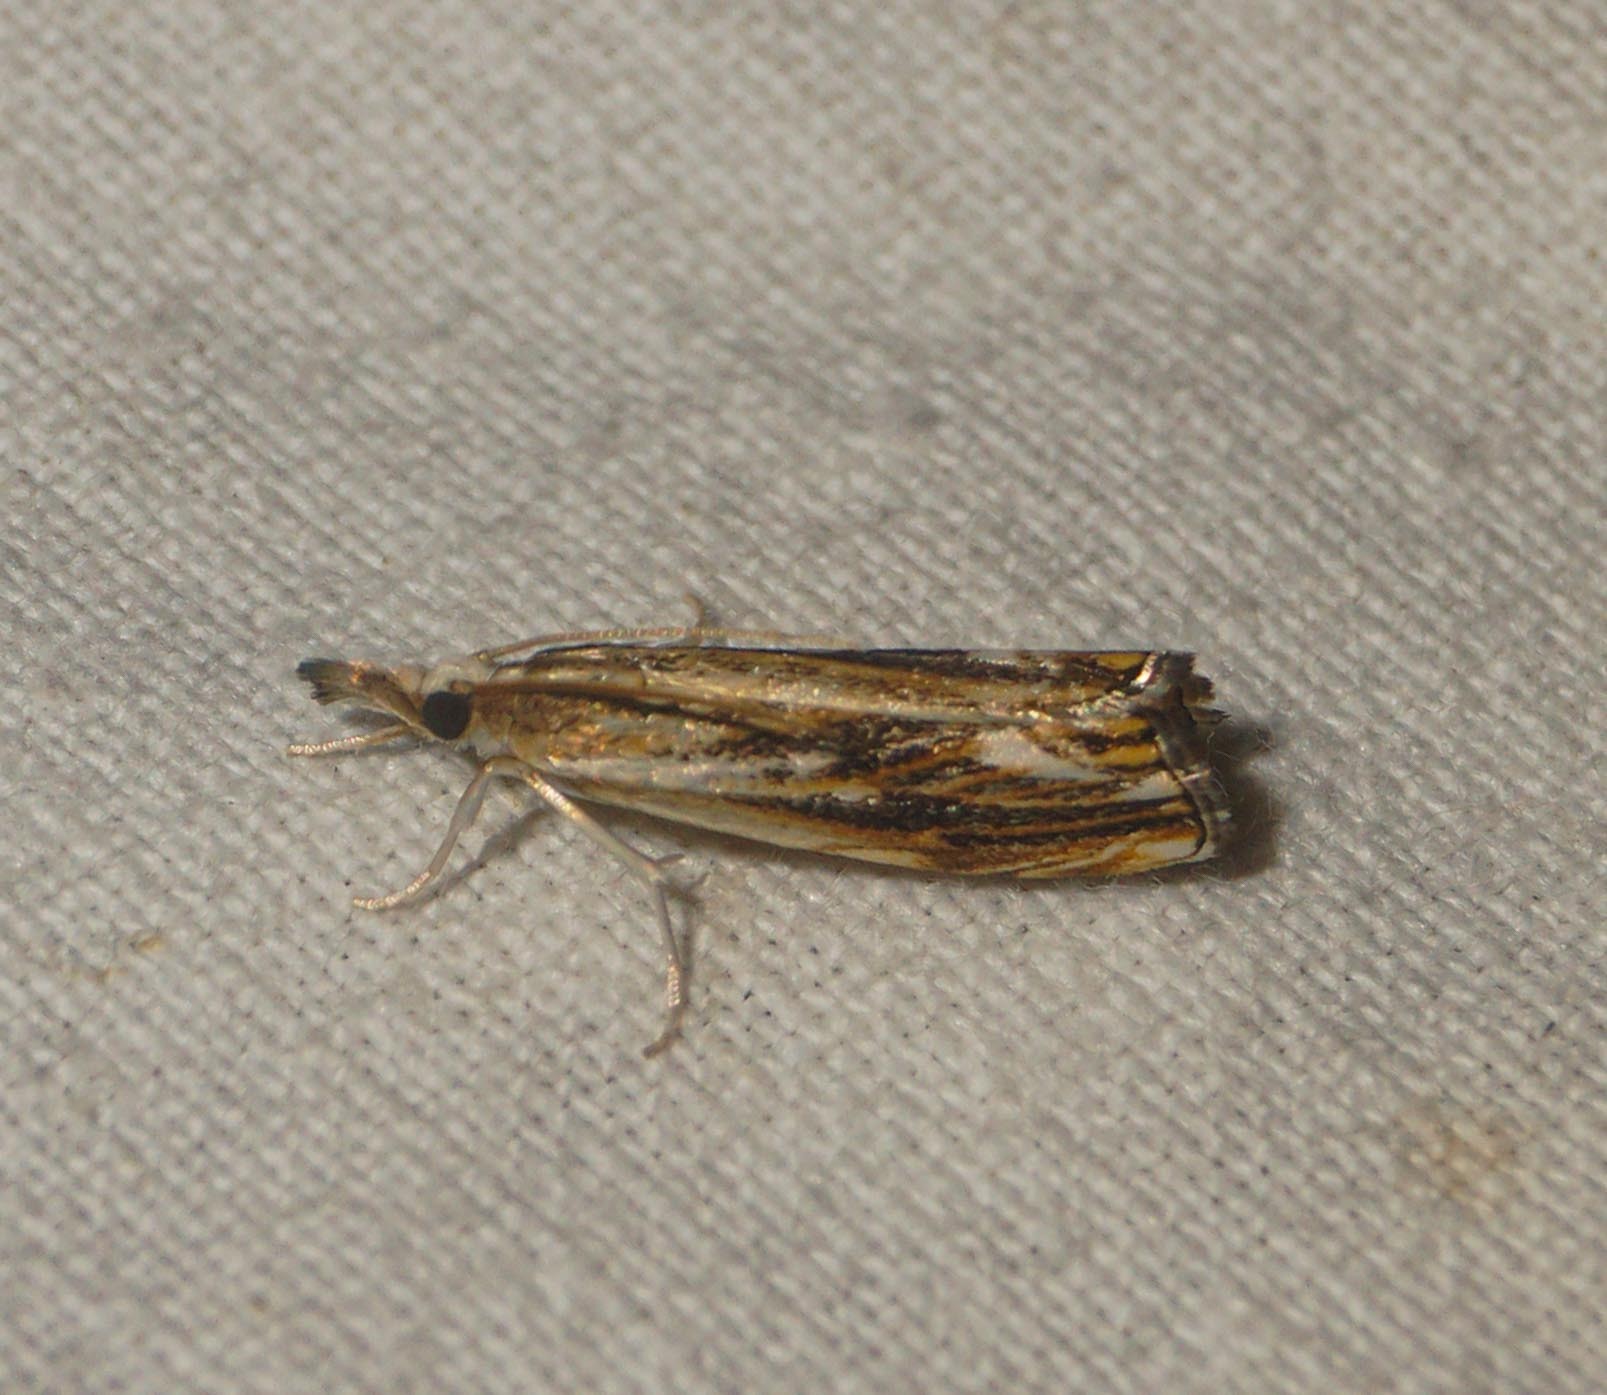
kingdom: Animalia
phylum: Arthropoda
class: Insecta
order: Lepidoptera
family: Crambidae
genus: Catoptria
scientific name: Catoptria verellus
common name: Marbled grass-veneer
